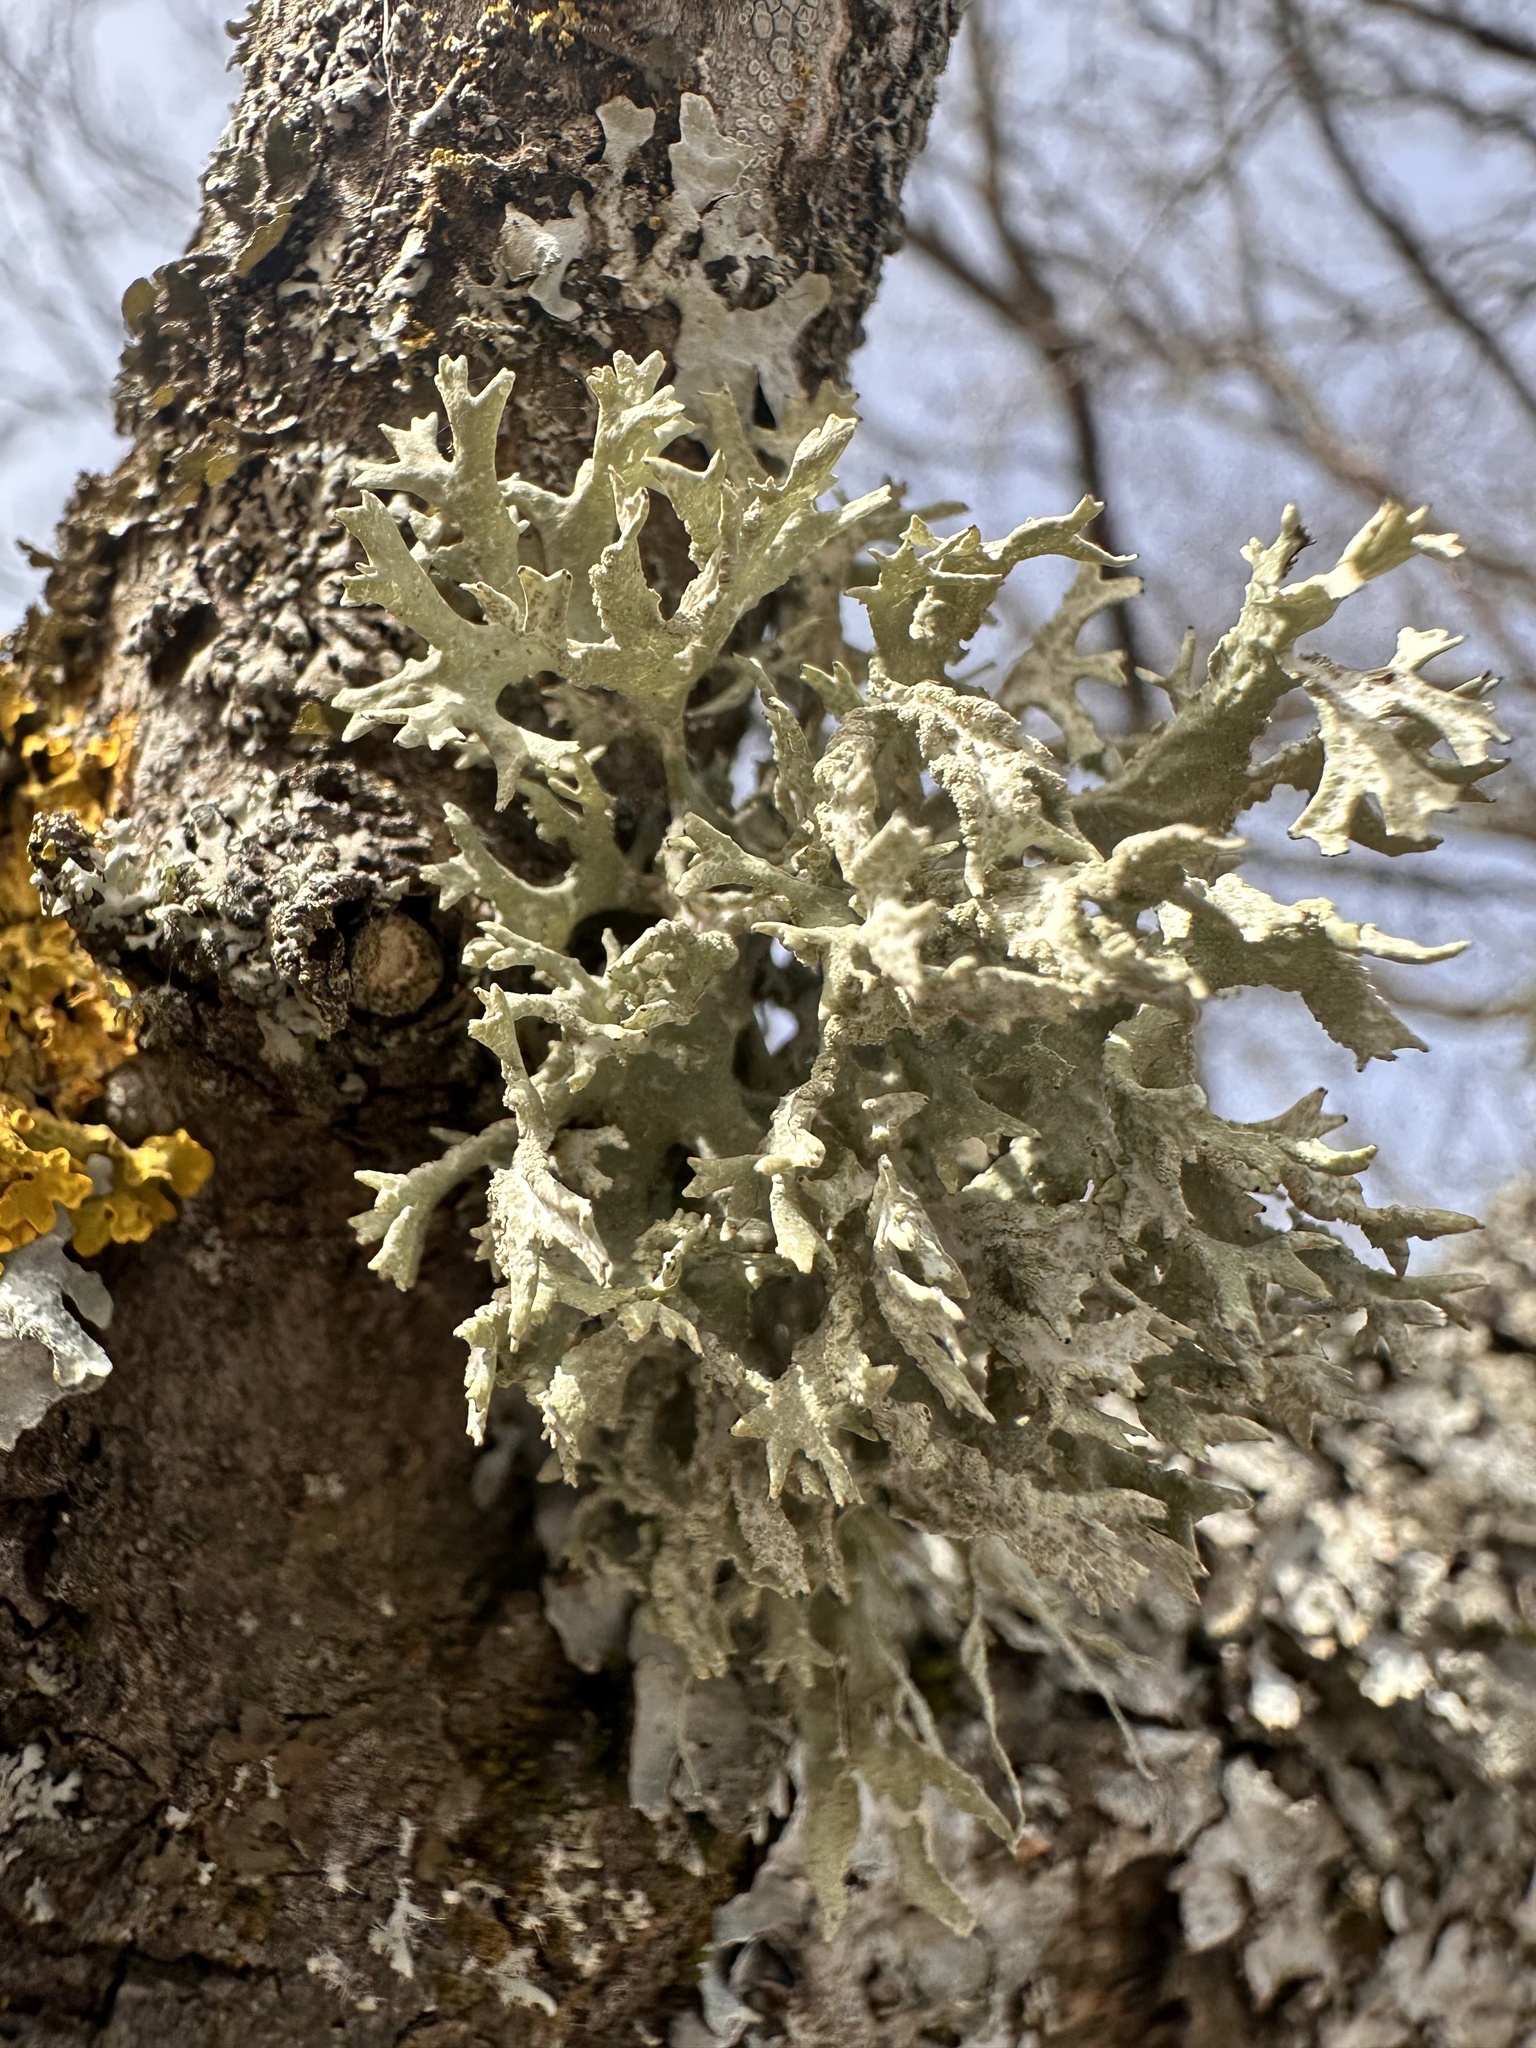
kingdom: Fungi
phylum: Ascomycota
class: Lecanoromycetes
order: Lecanorales
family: Parmeliaceae
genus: Evernia
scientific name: Evernia prunastri
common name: Oak moss
